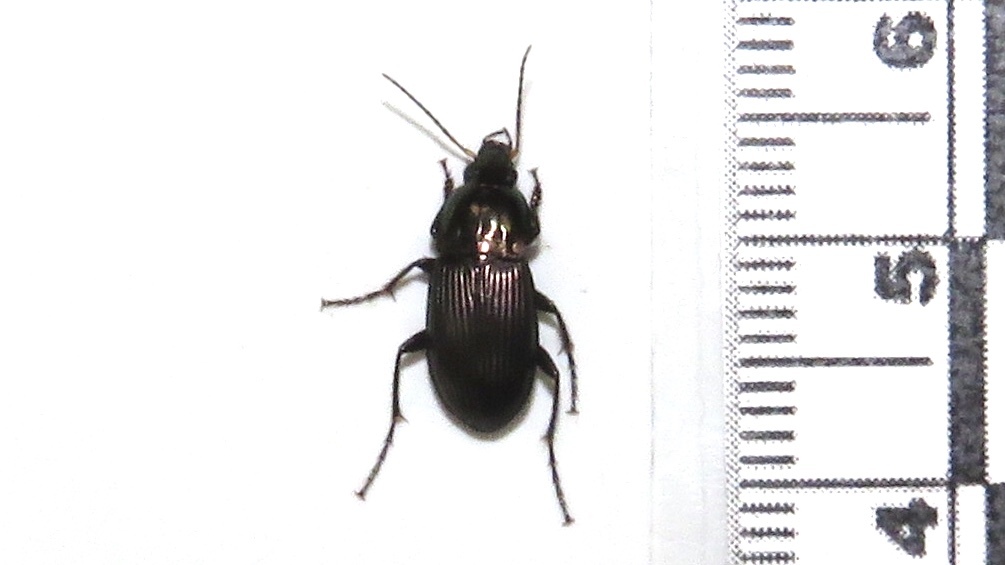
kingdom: Animalia
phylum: Arthropoda
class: Insecta
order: Coleoptera
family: Carabidae
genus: Poecilus
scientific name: Poecilus lucublandus
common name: Woodland ground beetle
